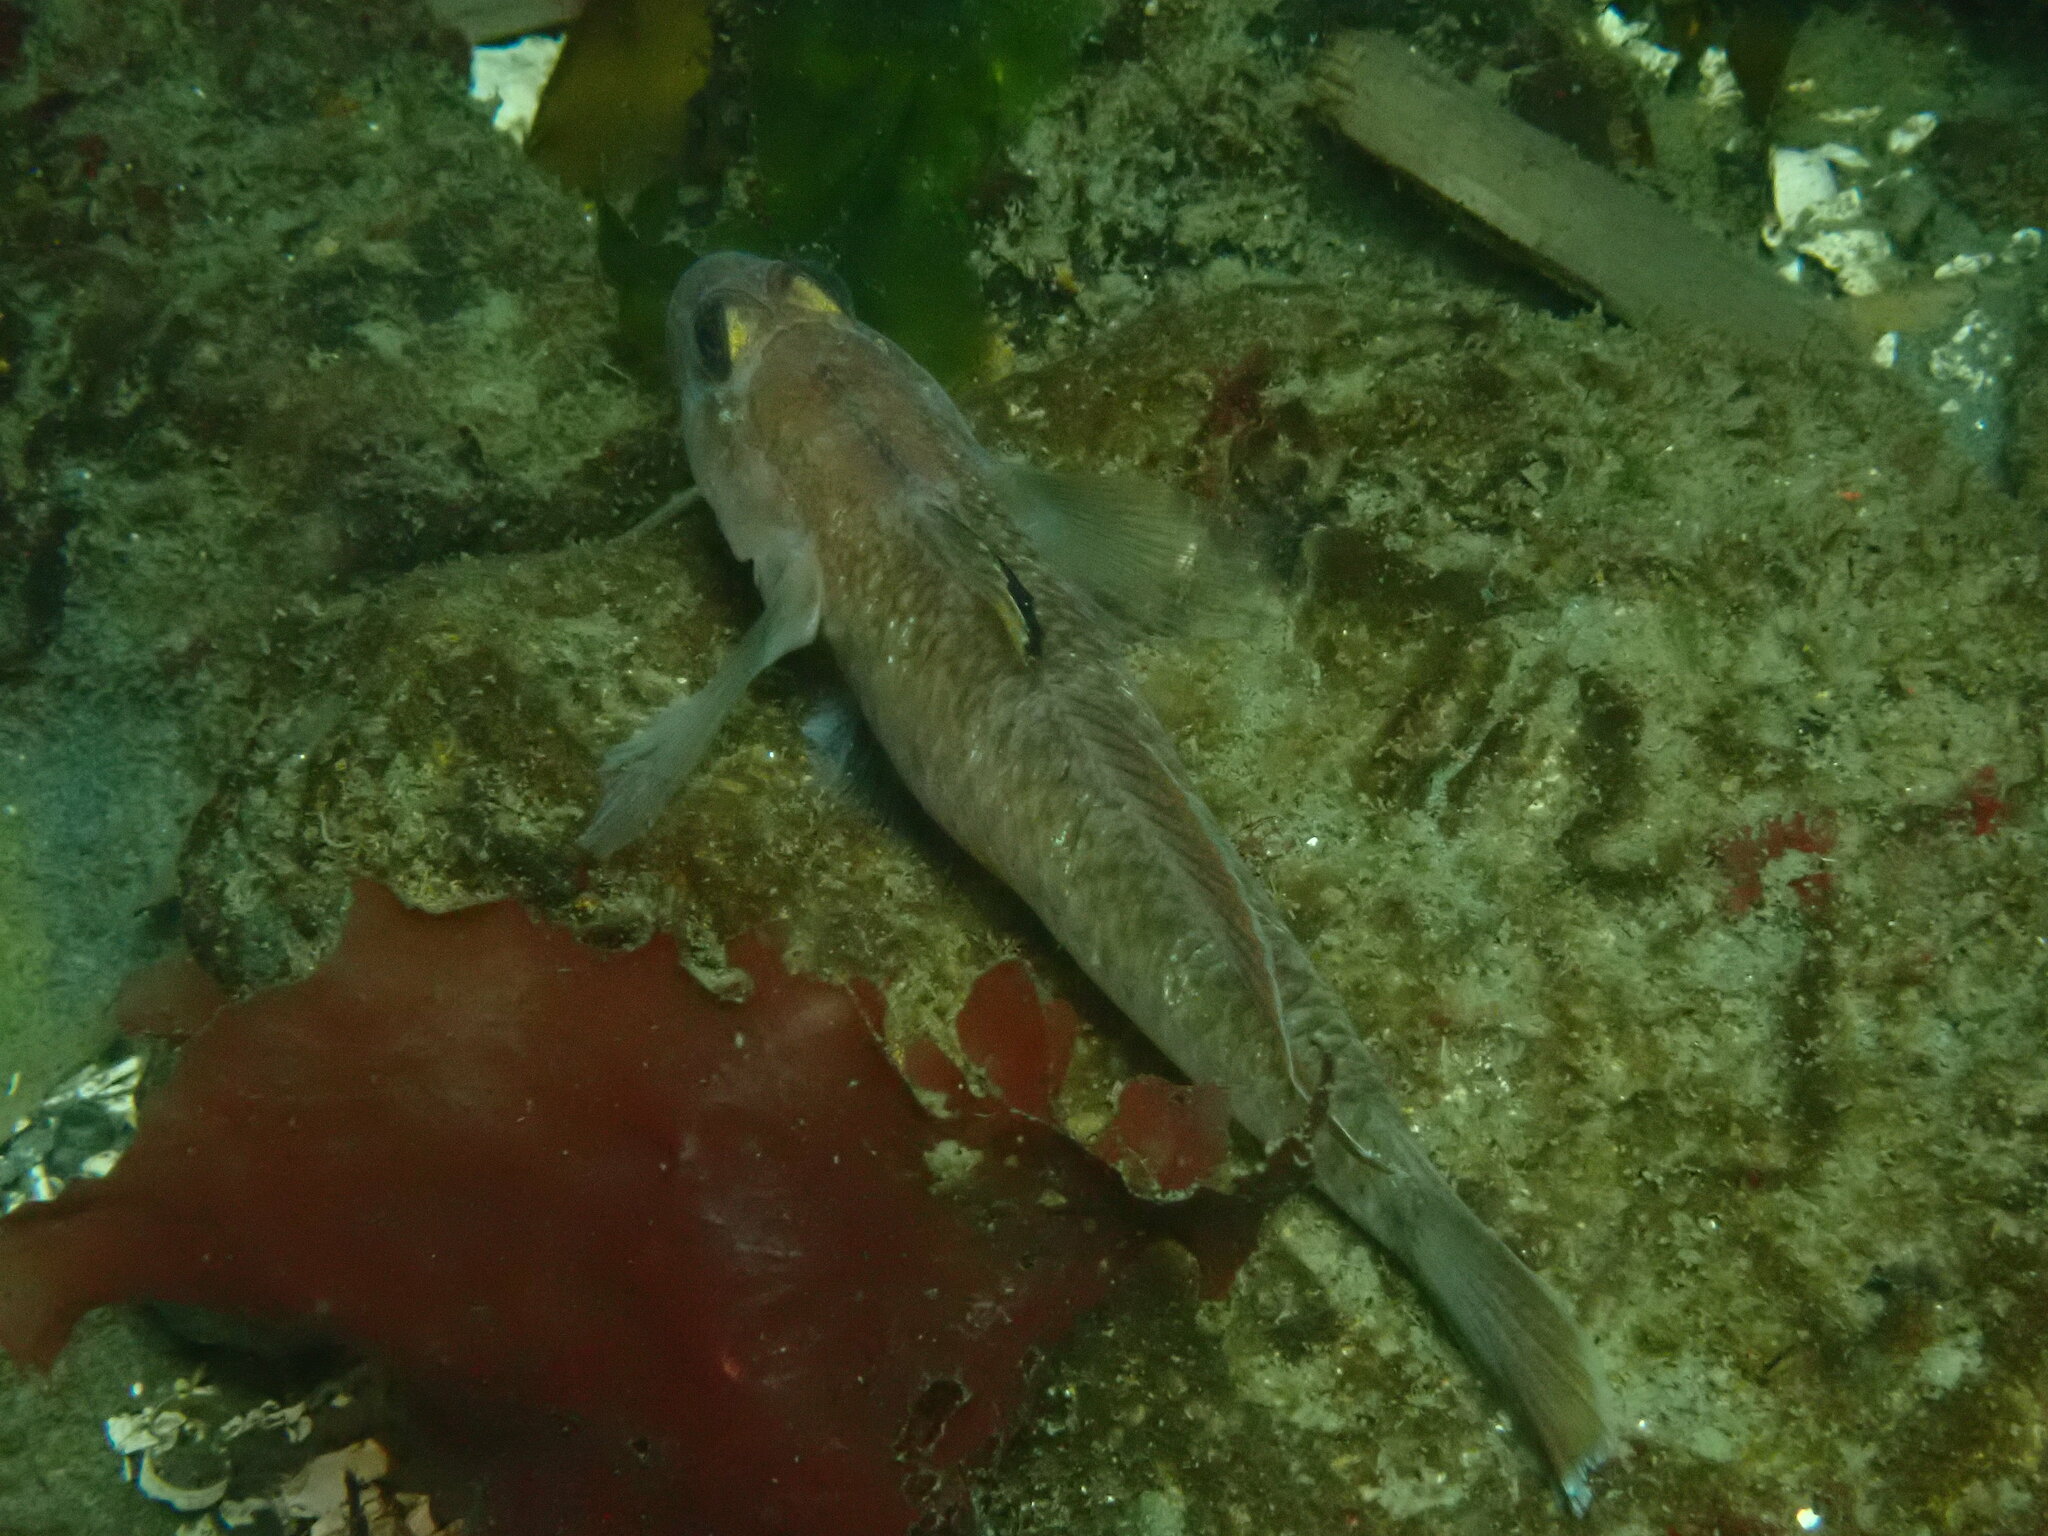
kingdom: Animalia
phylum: Chordata
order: Perciformes
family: Gobiidae
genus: Rhinogobiops
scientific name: Rhinogobiops nicholsii
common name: Blackeye goby
